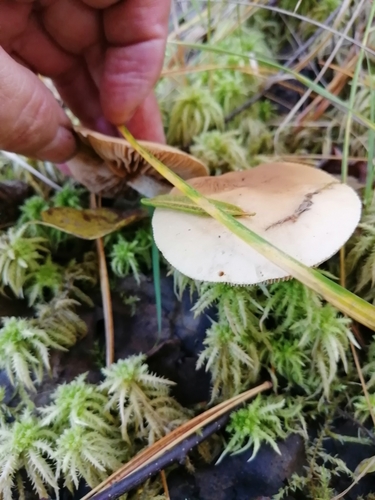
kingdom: Fungi
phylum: Basidiomycota
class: Agaricomycetes
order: Agaricales
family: Hymenogastraceae
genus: Hebeloma
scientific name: Hebeloma incarnatulum
